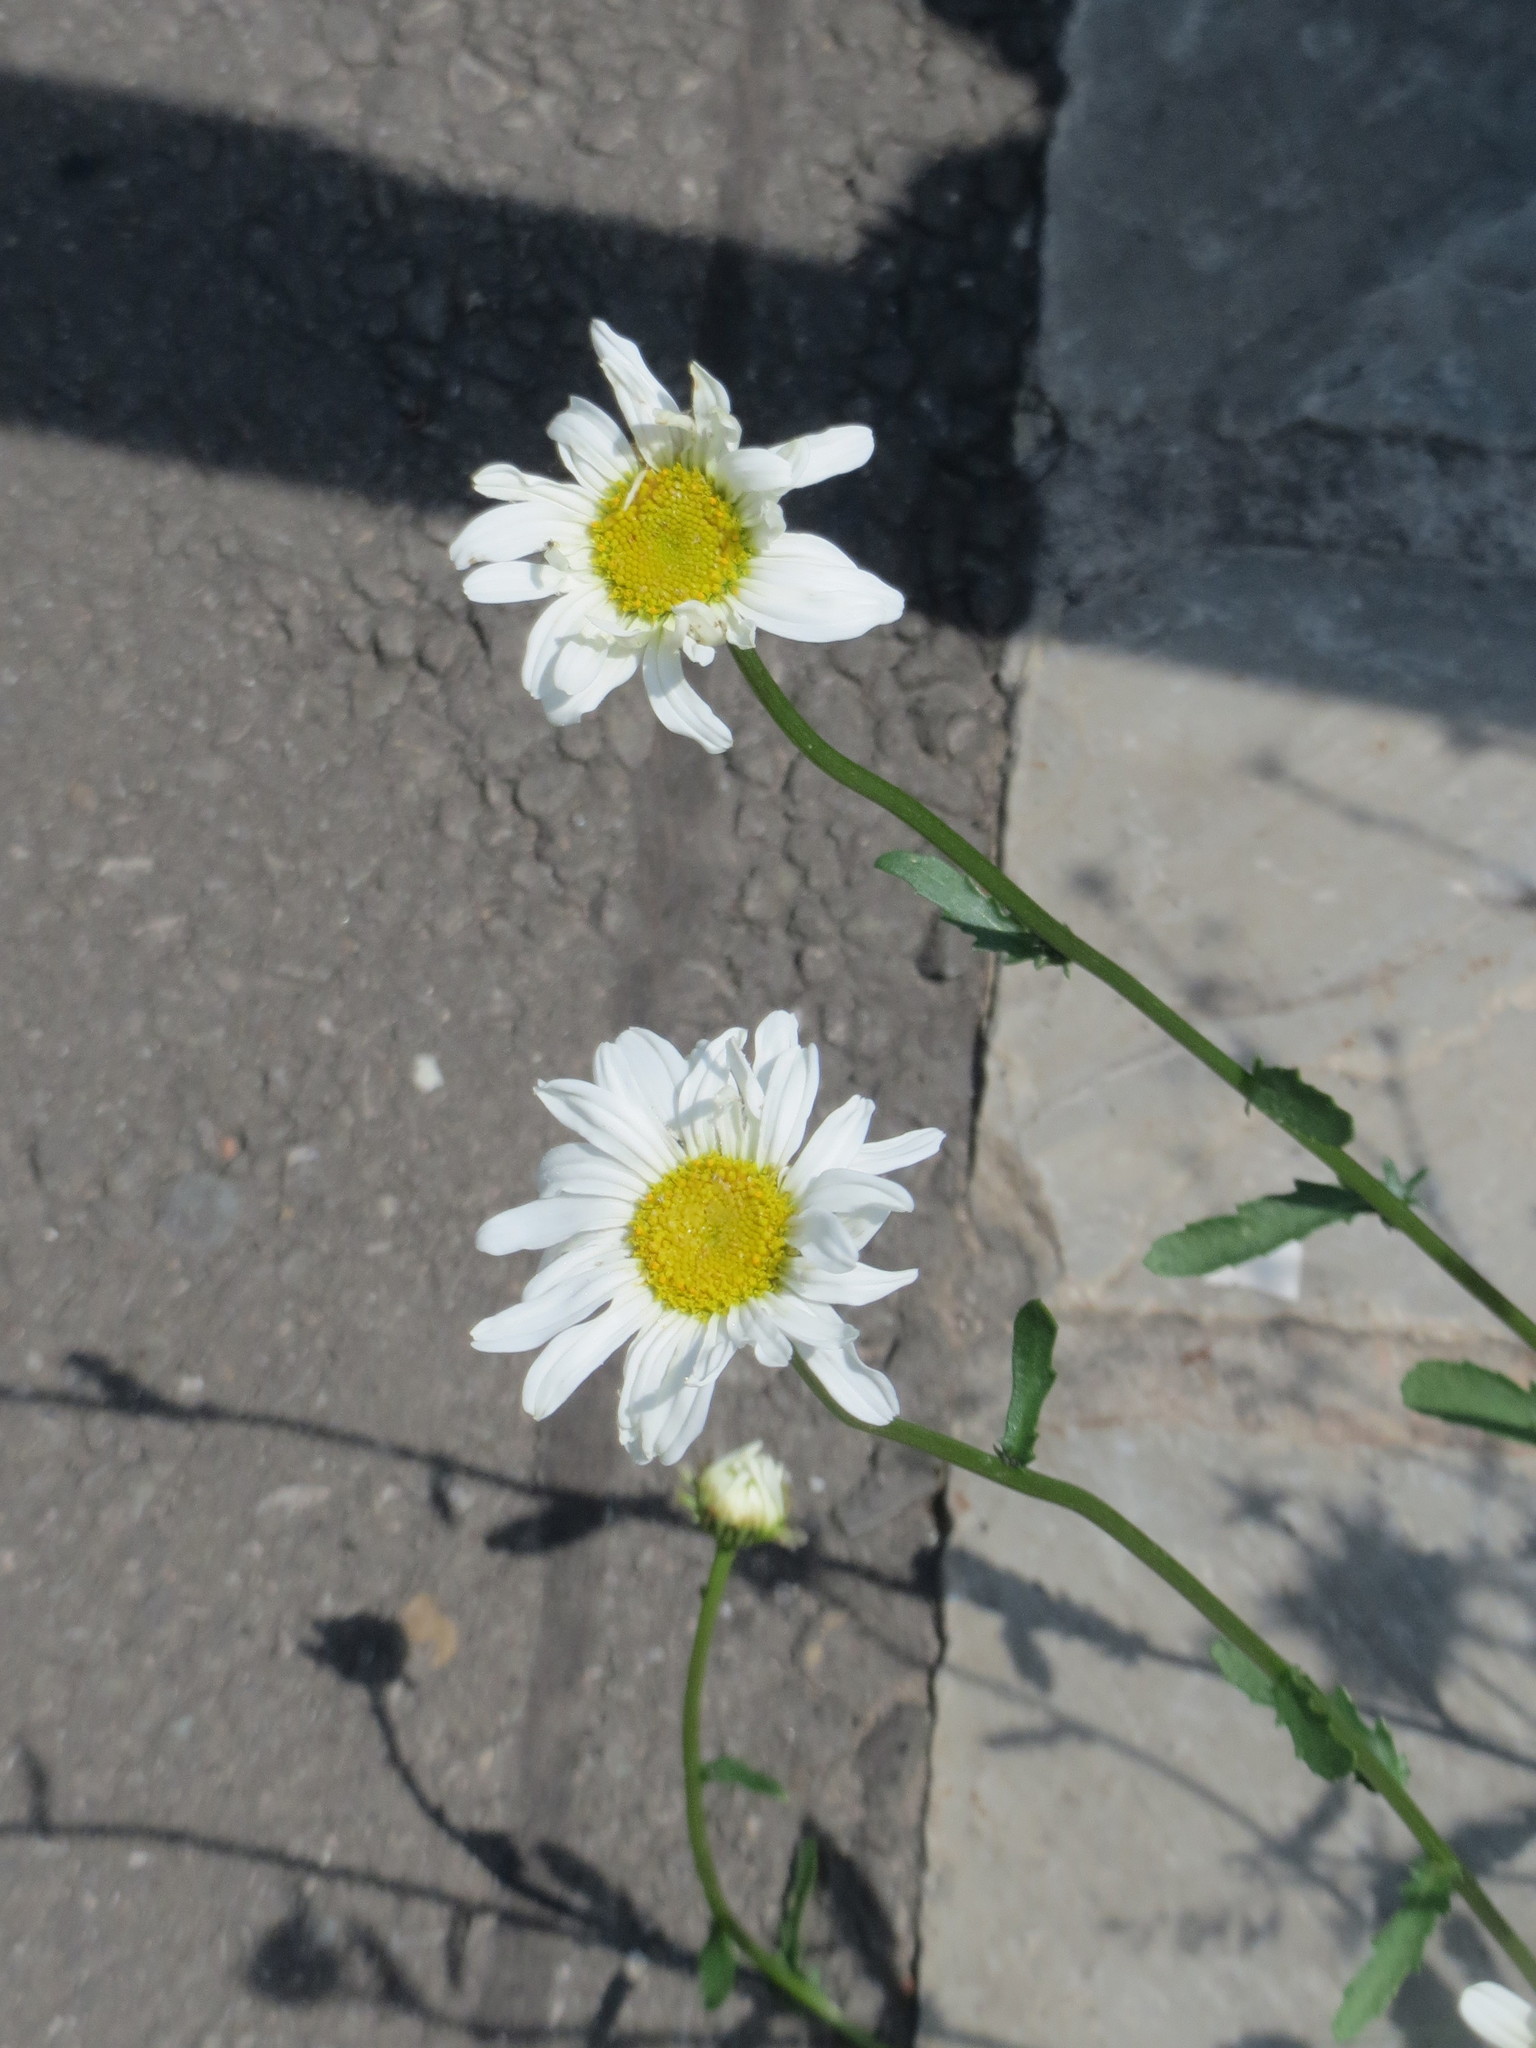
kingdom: Plantae
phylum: Tracheophyta
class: Magnoliopsida
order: Asterales
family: Asteraceae
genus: Leucanthemum
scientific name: Leucanthemum vulgare
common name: Oxeye daisy
